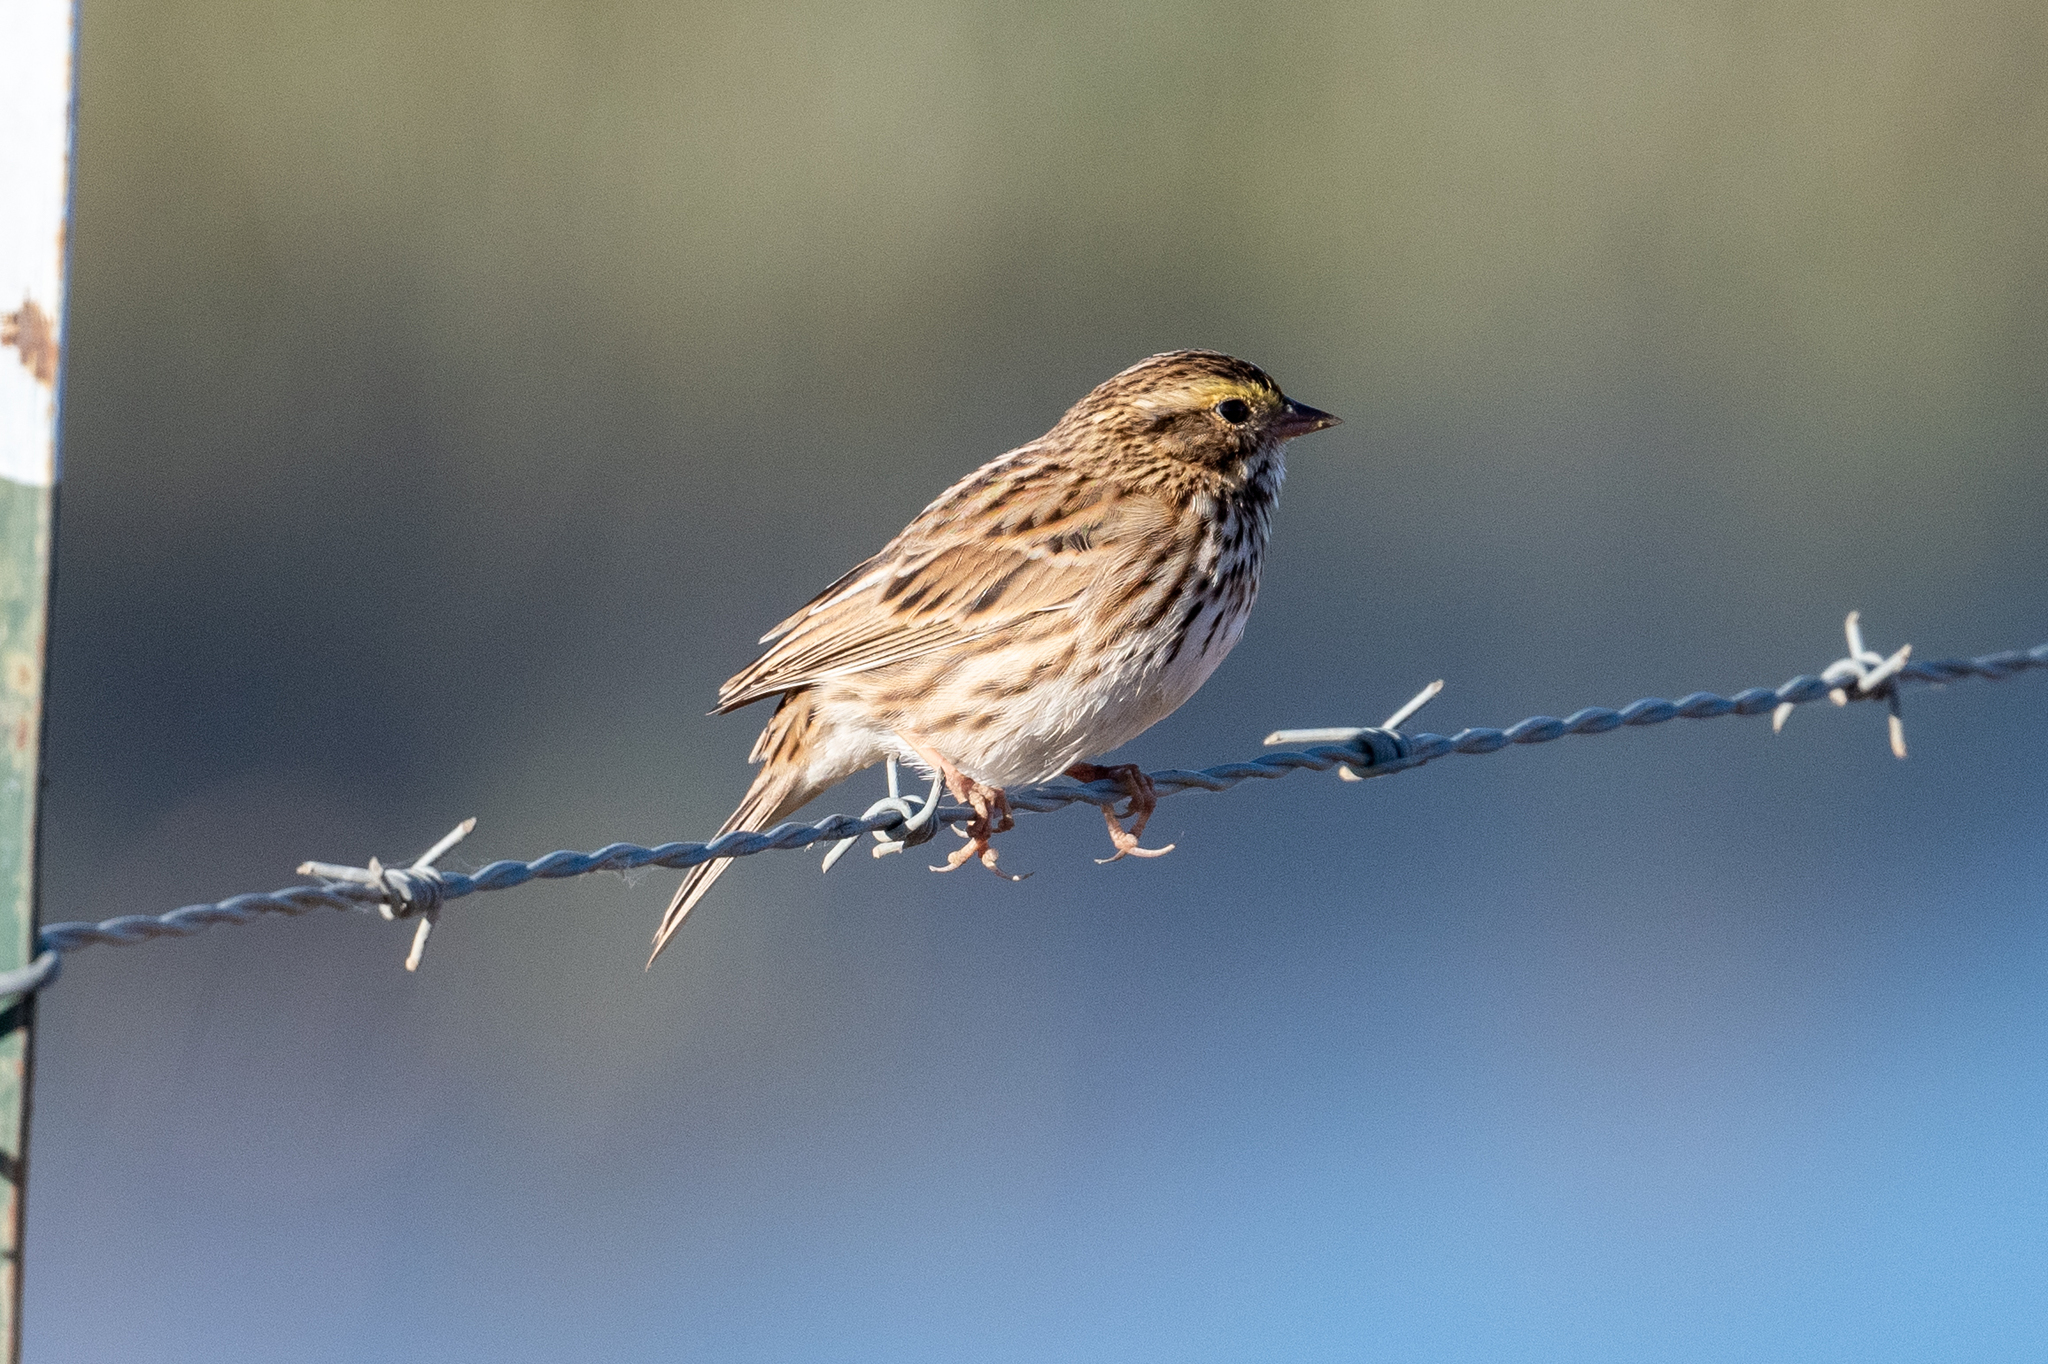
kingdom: Animalia
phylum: Chordata
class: Aves
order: Passeriformes
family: Passerellidae
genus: Passerculus
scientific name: Passerculus sandwichensis
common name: Savannah sparrow
